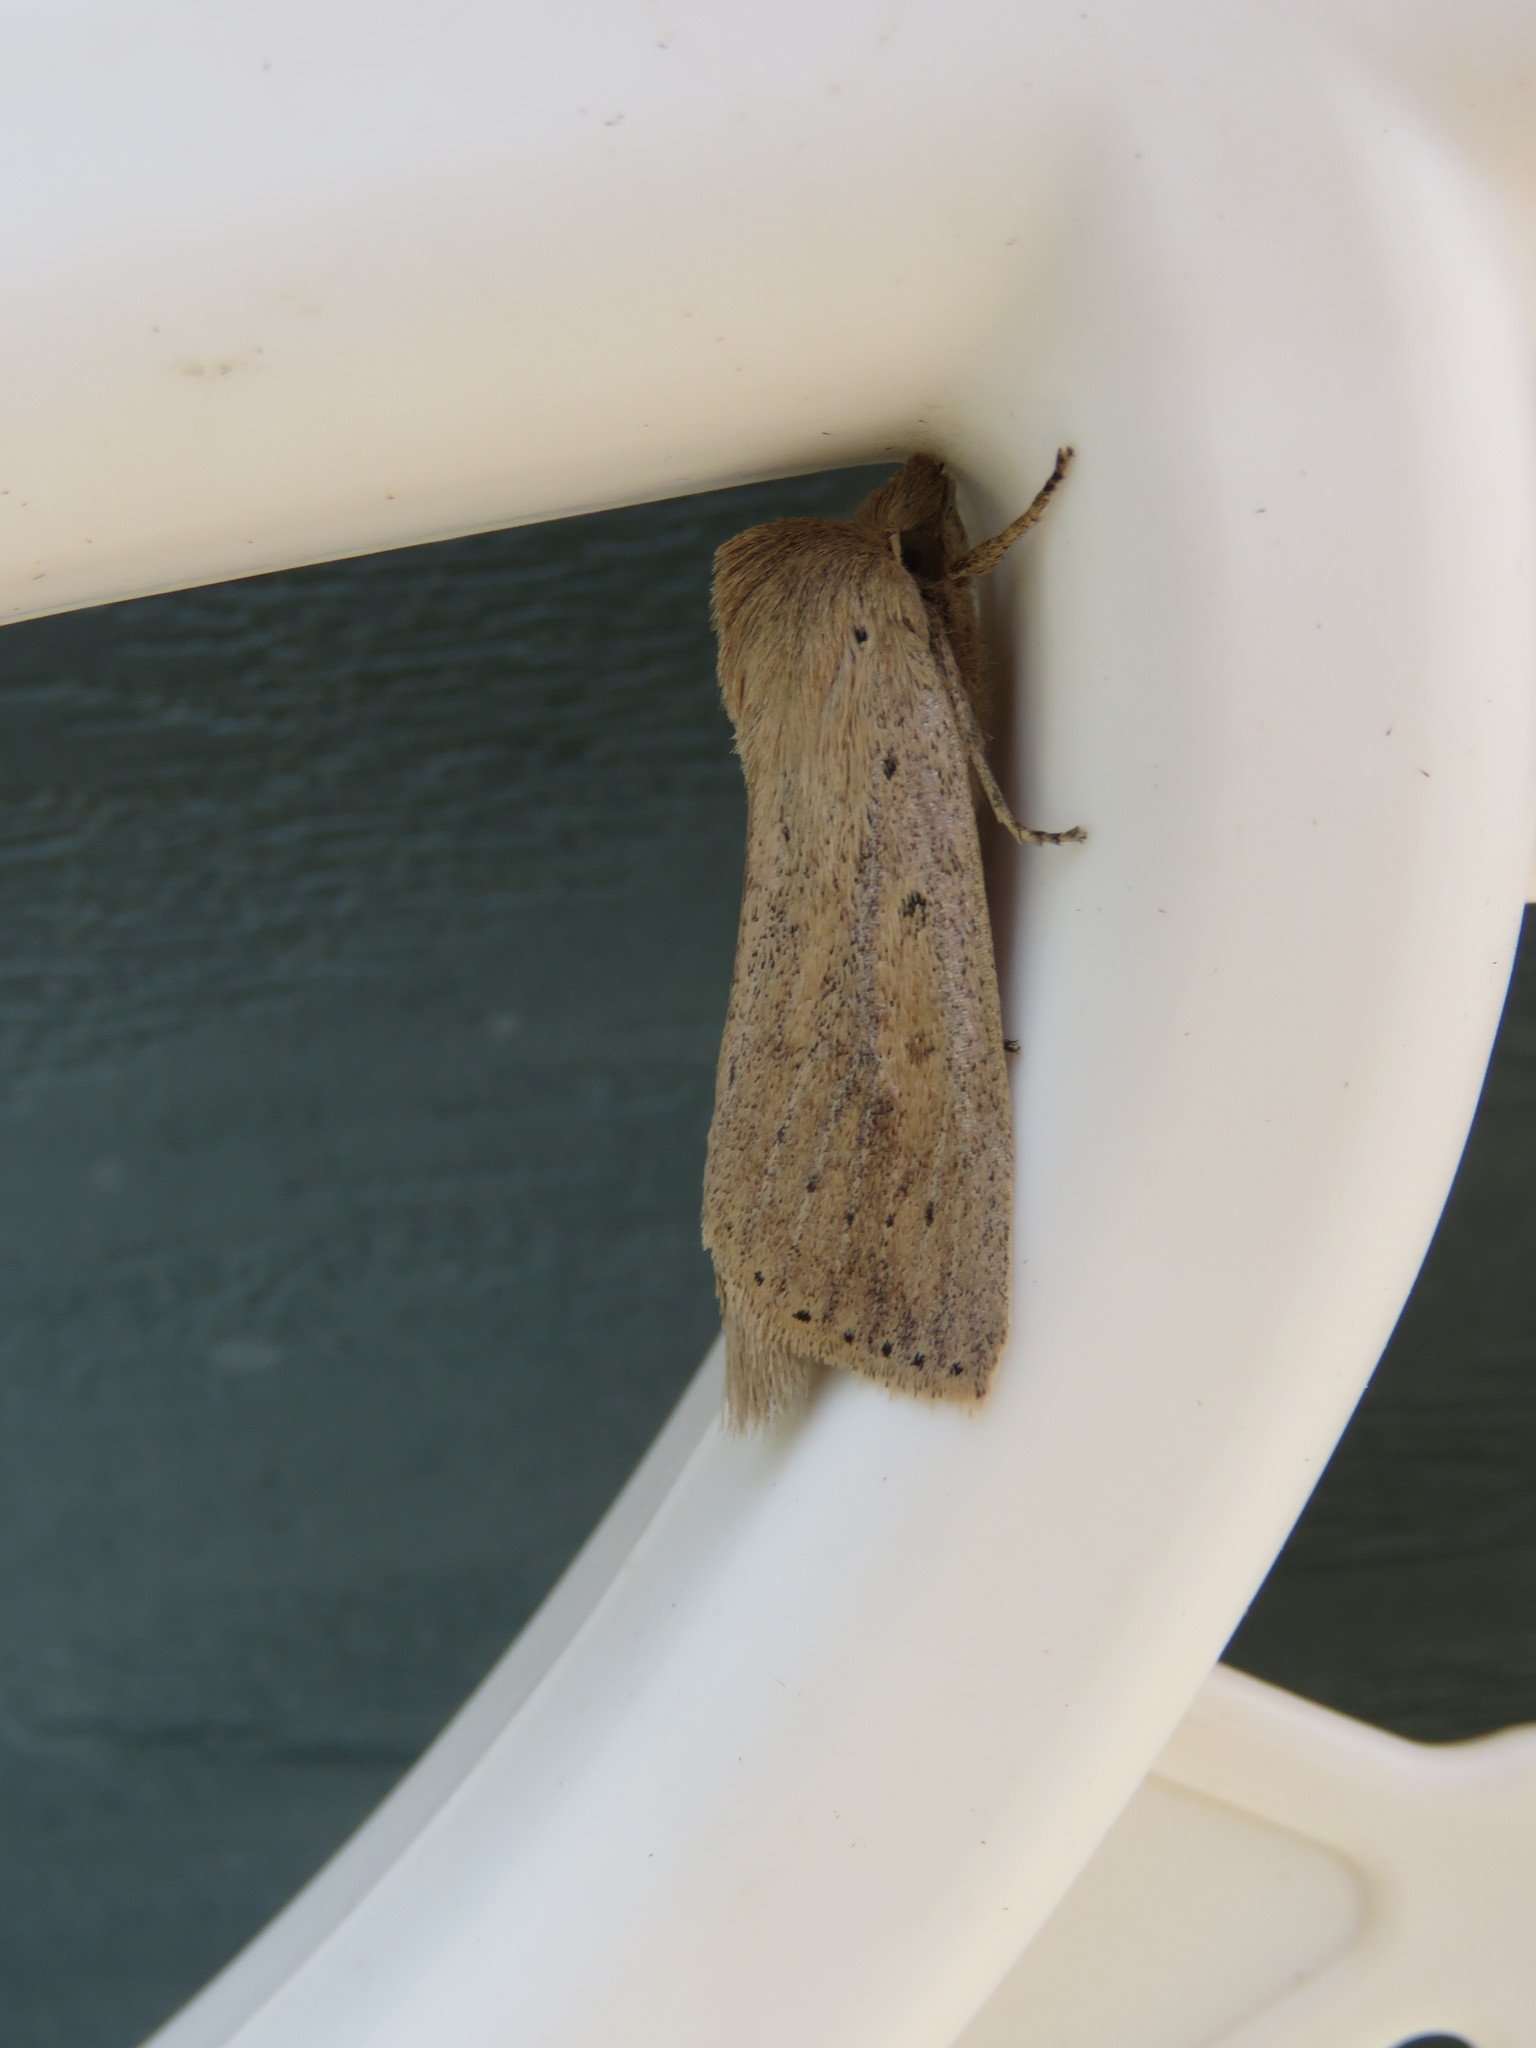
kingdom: Animalia
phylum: Arthropoda
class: Insecta
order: Lepidoptera
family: Noctuidae
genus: Globia
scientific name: Globia oblonga
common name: Oblong sedge borer moth
